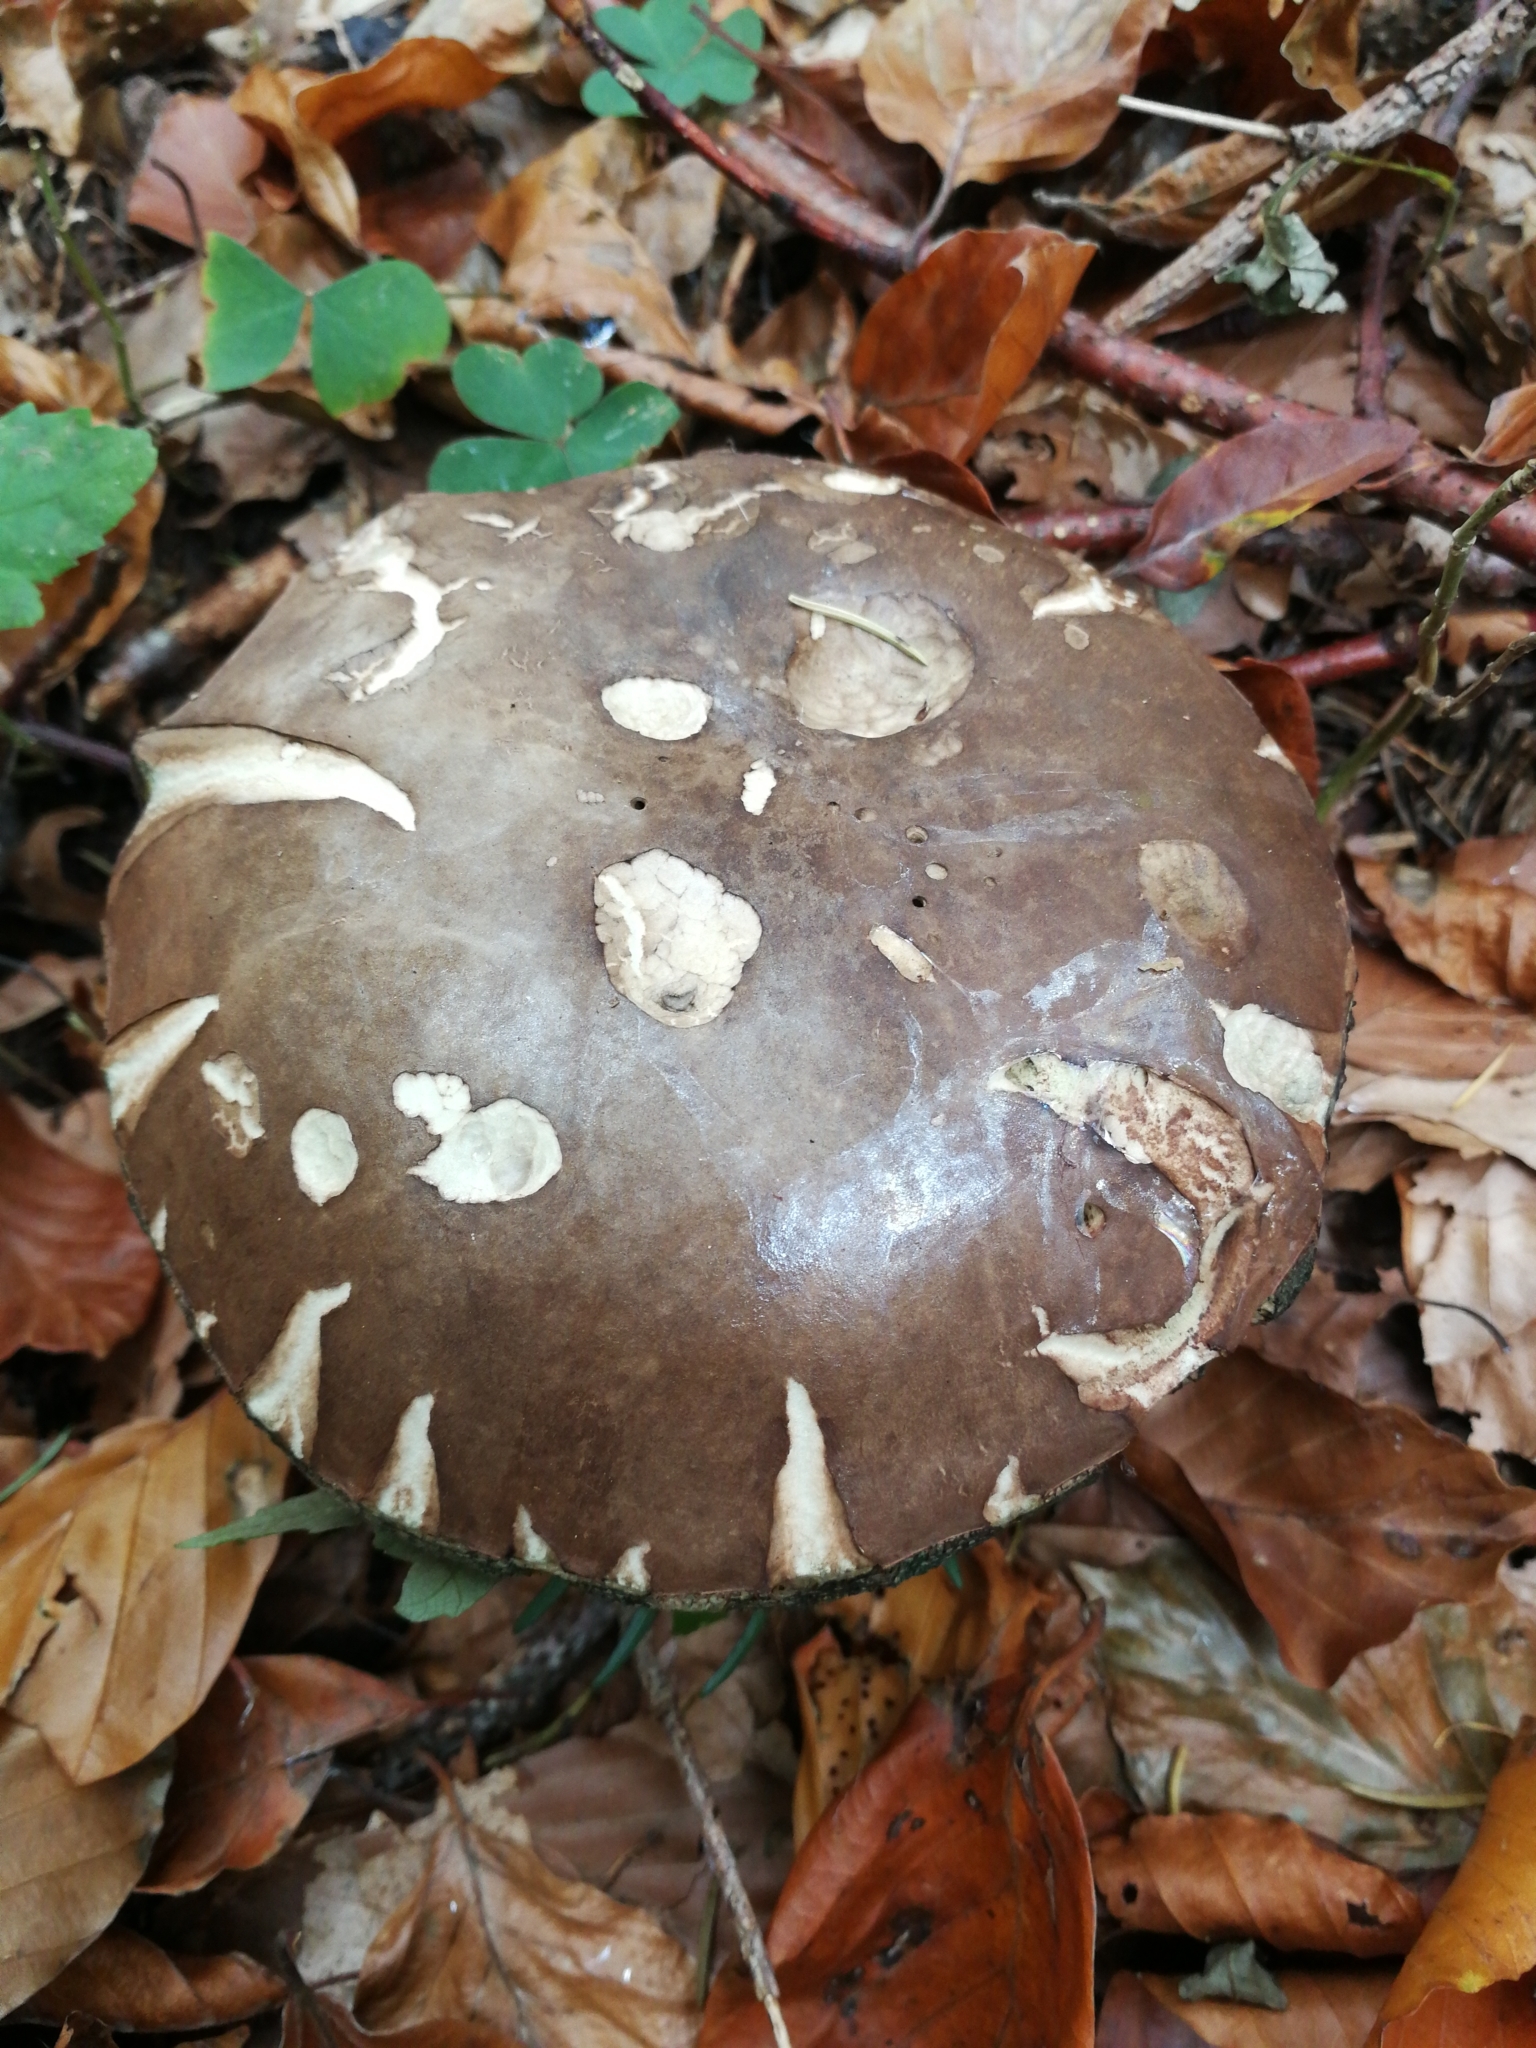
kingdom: Fungi
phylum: Basidiomycota
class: Agaricomycetes
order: Boletales
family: Boletaceae
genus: Porphyrellus
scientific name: Porphyrellus porphyrosporus
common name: Dusky bolete
